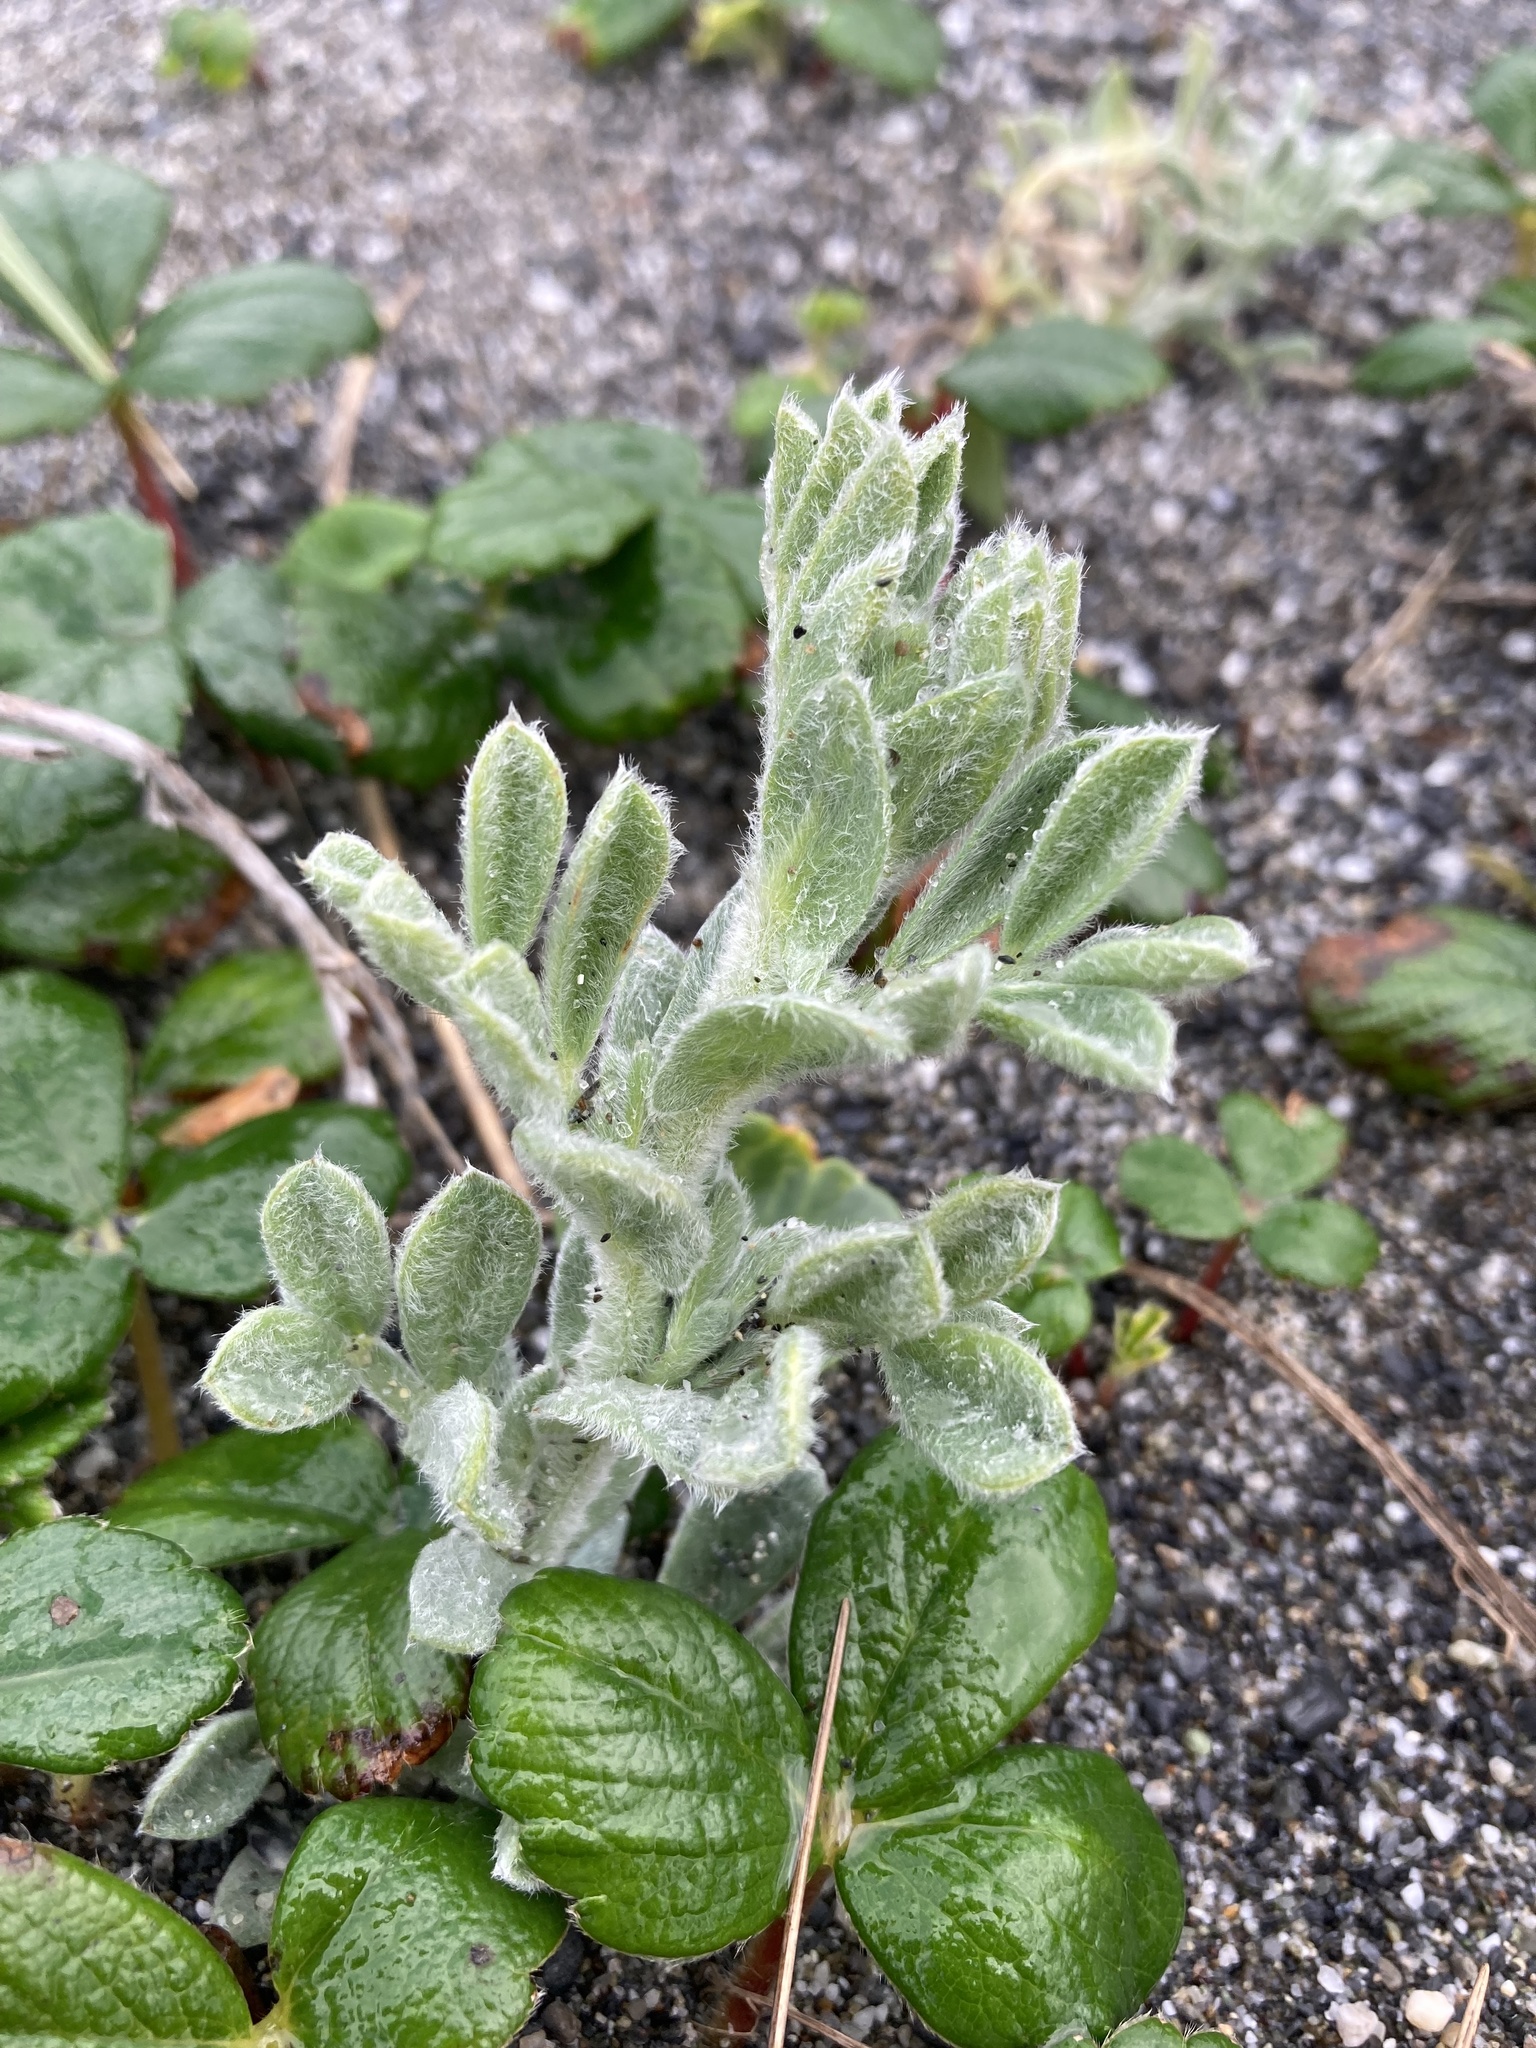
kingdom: Plantae
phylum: Tracheophyta
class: Magnoliopsida
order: Fabales
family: Fabaceae
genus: Lathyrus
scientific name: Lathyrus littoralis
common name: Dune sweet pea
